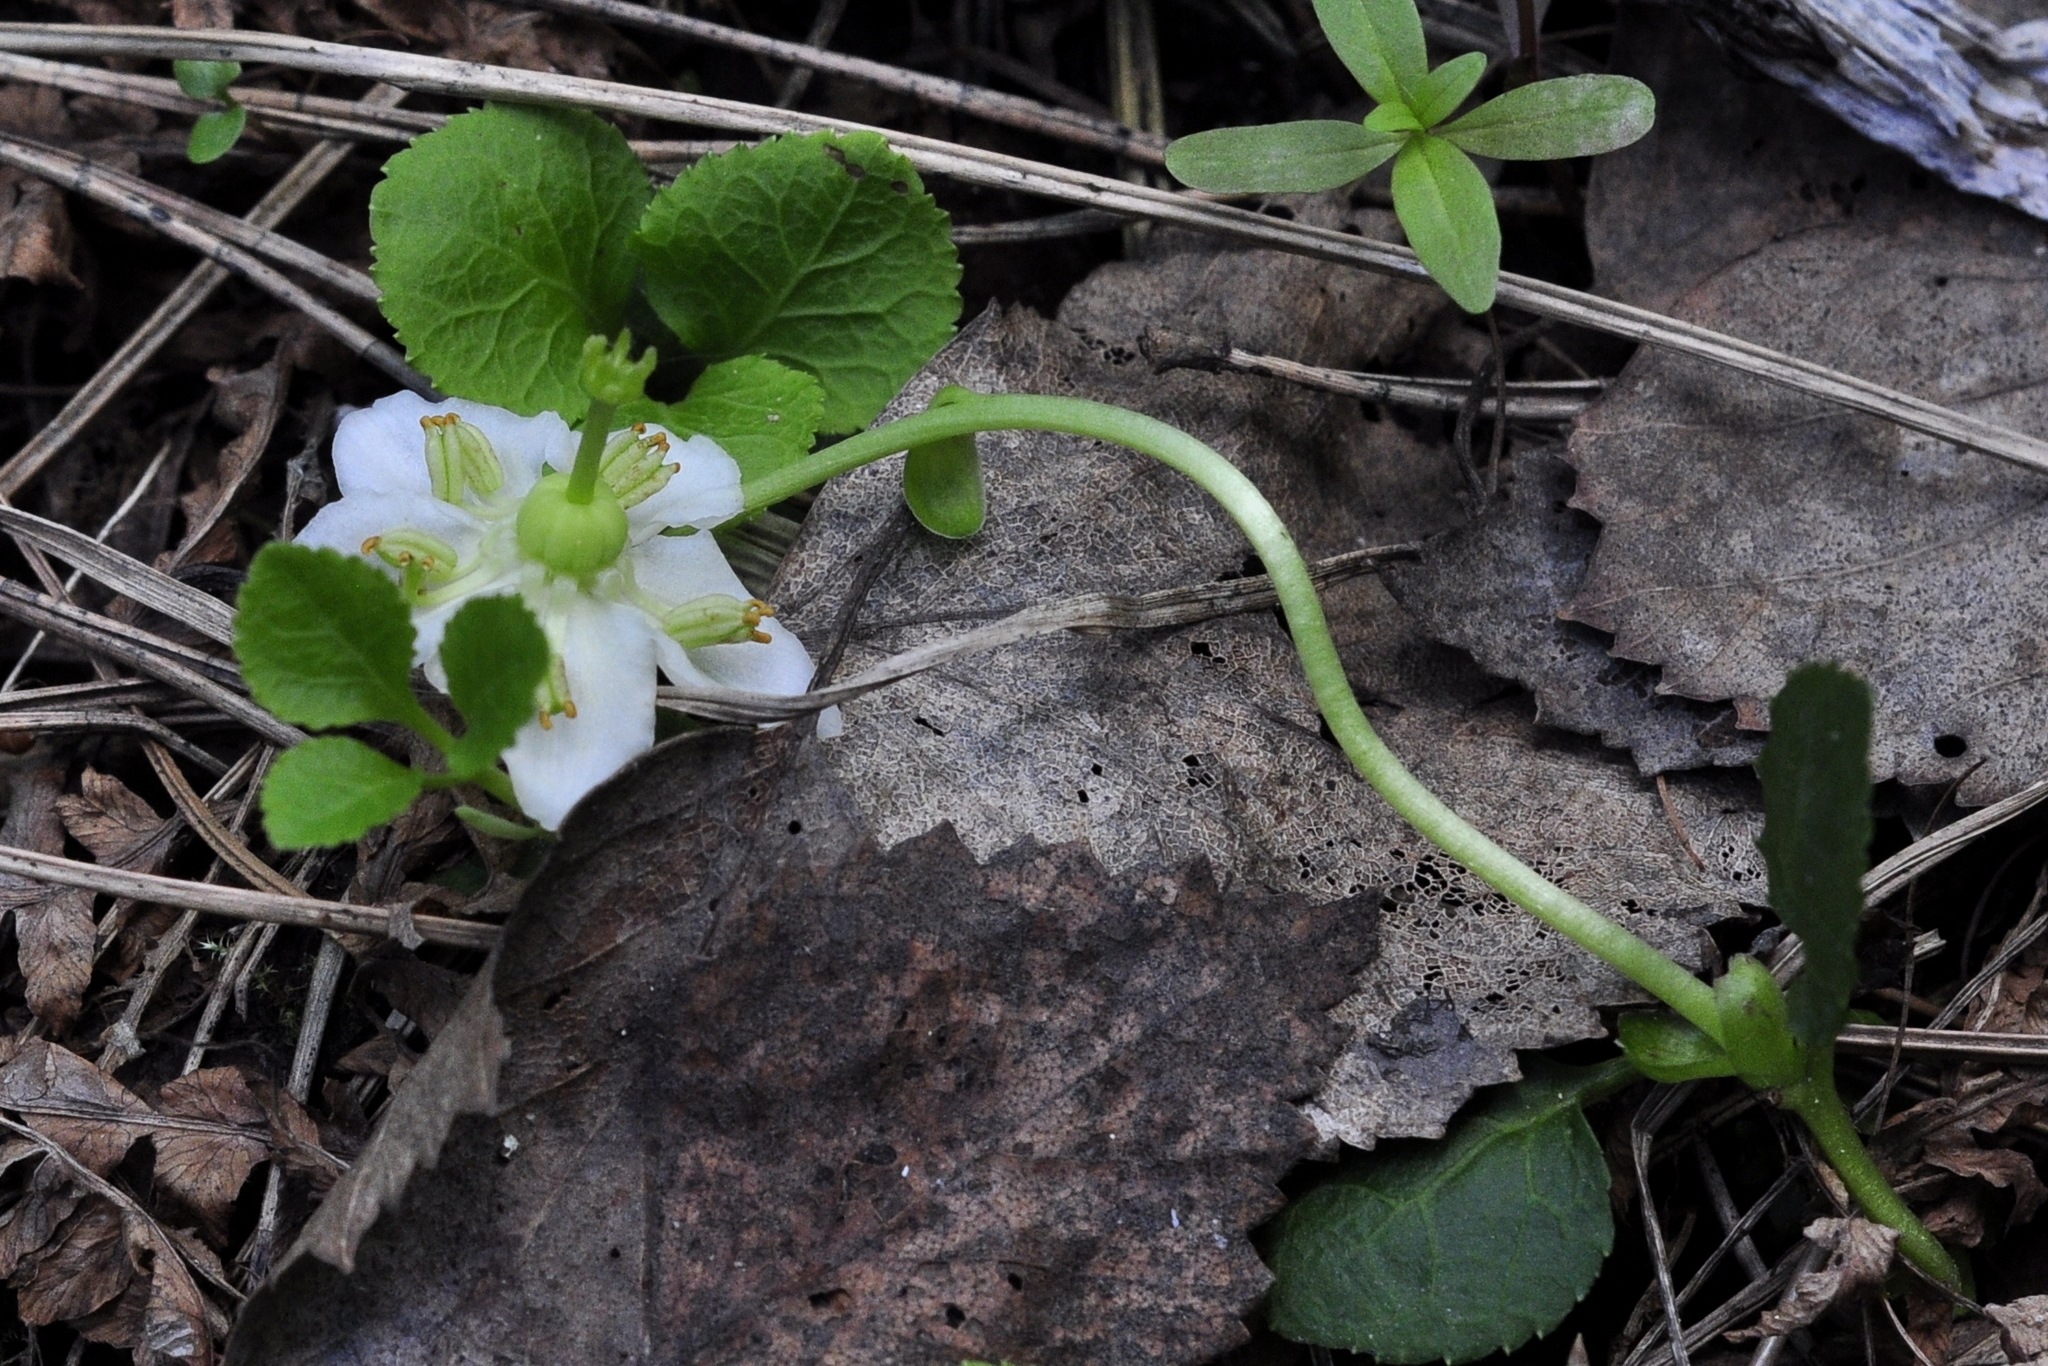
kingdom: Plantae
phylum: Tracheophyta
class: Magnoliopsida
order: Ericales
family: Ericaceae
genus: Moneses
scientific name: Moneses uniflora
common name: One-flowered wintergreen
